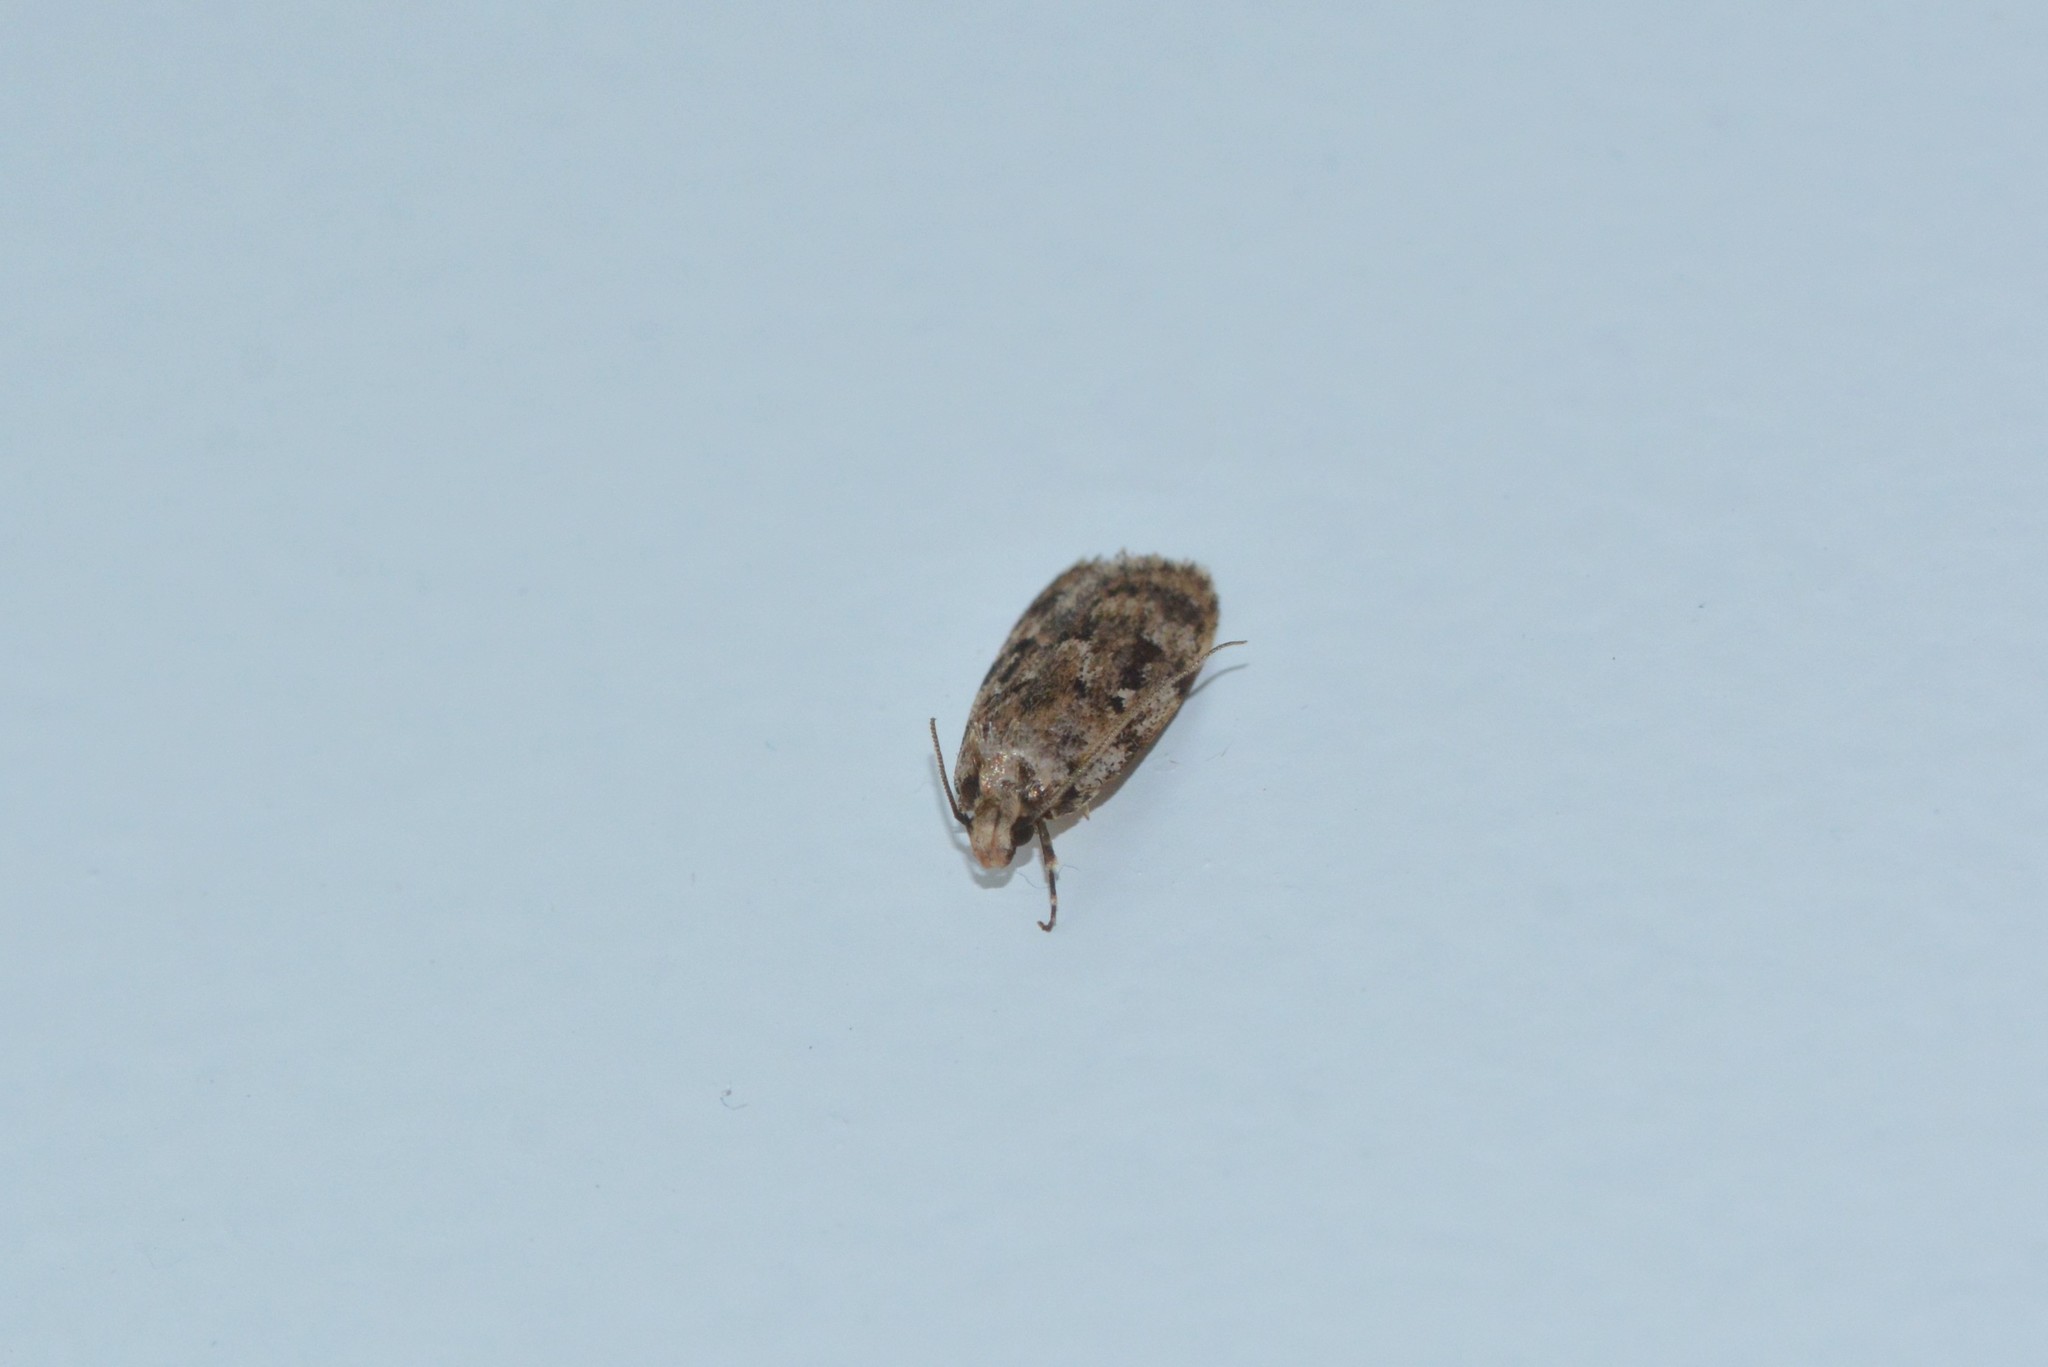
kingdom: Animalia
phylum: Arthropoda
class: Insecta
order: Lepidoptera
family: Oecophoridae
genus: Barea
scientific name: Barea exarcha
